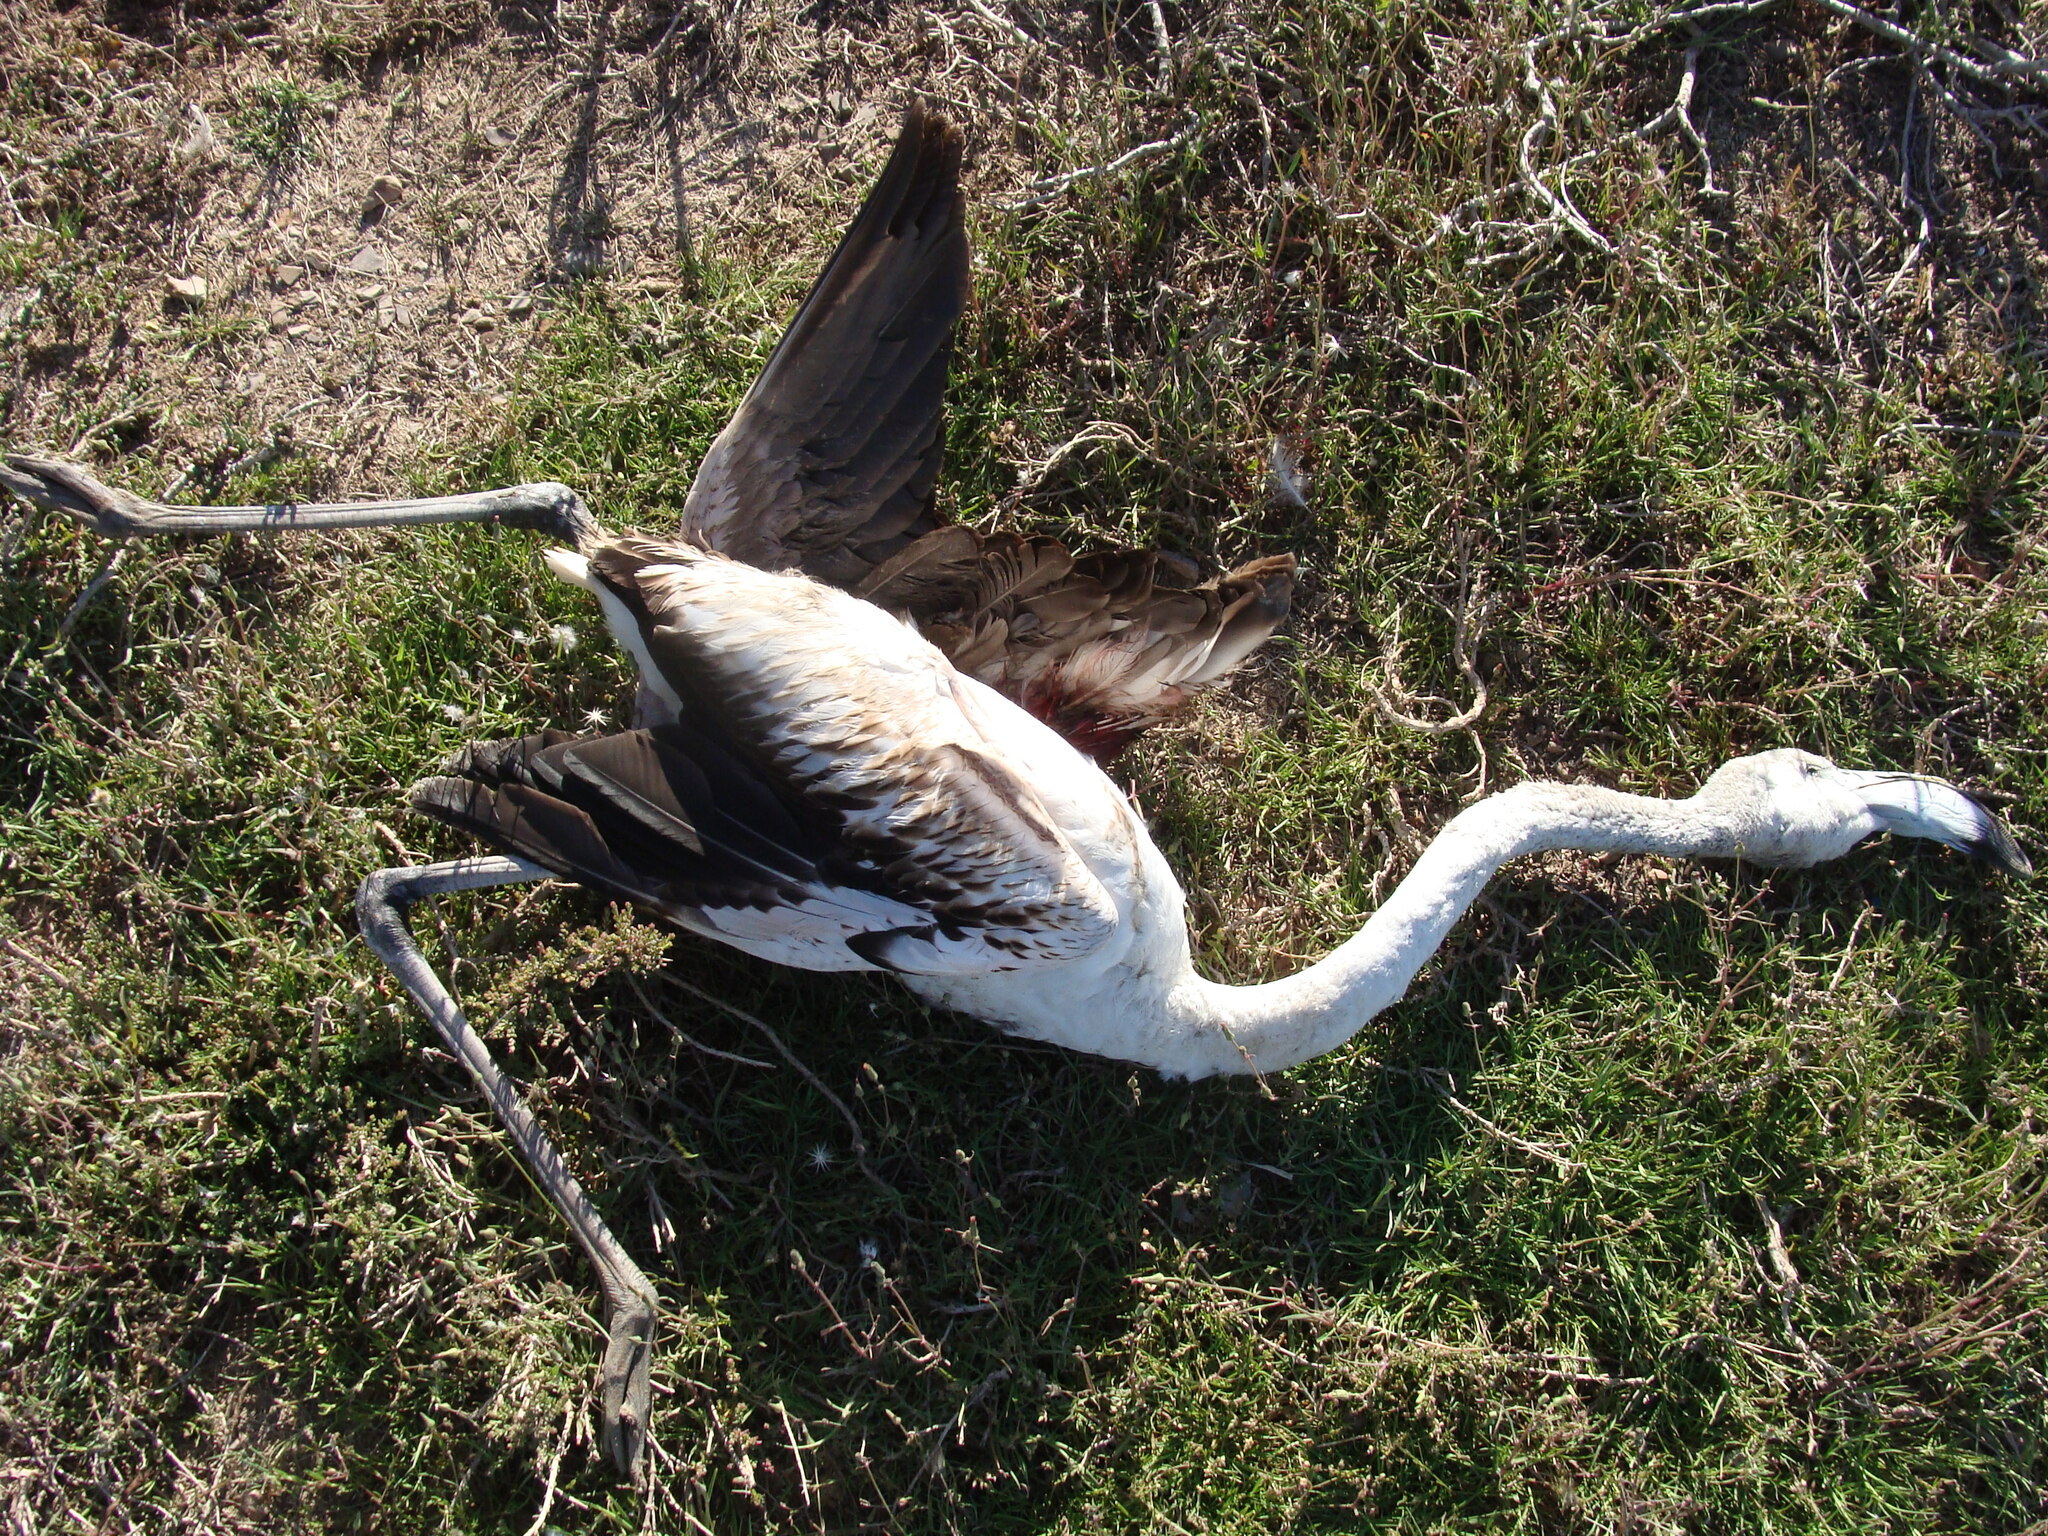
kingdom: Animalia
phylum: Chordata
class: Aves
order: Phoenicopteriformes
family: Phoenicopteridae
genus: Phoenicopterus
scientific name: Phoenicopterus roseus
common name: Greater flamingo
